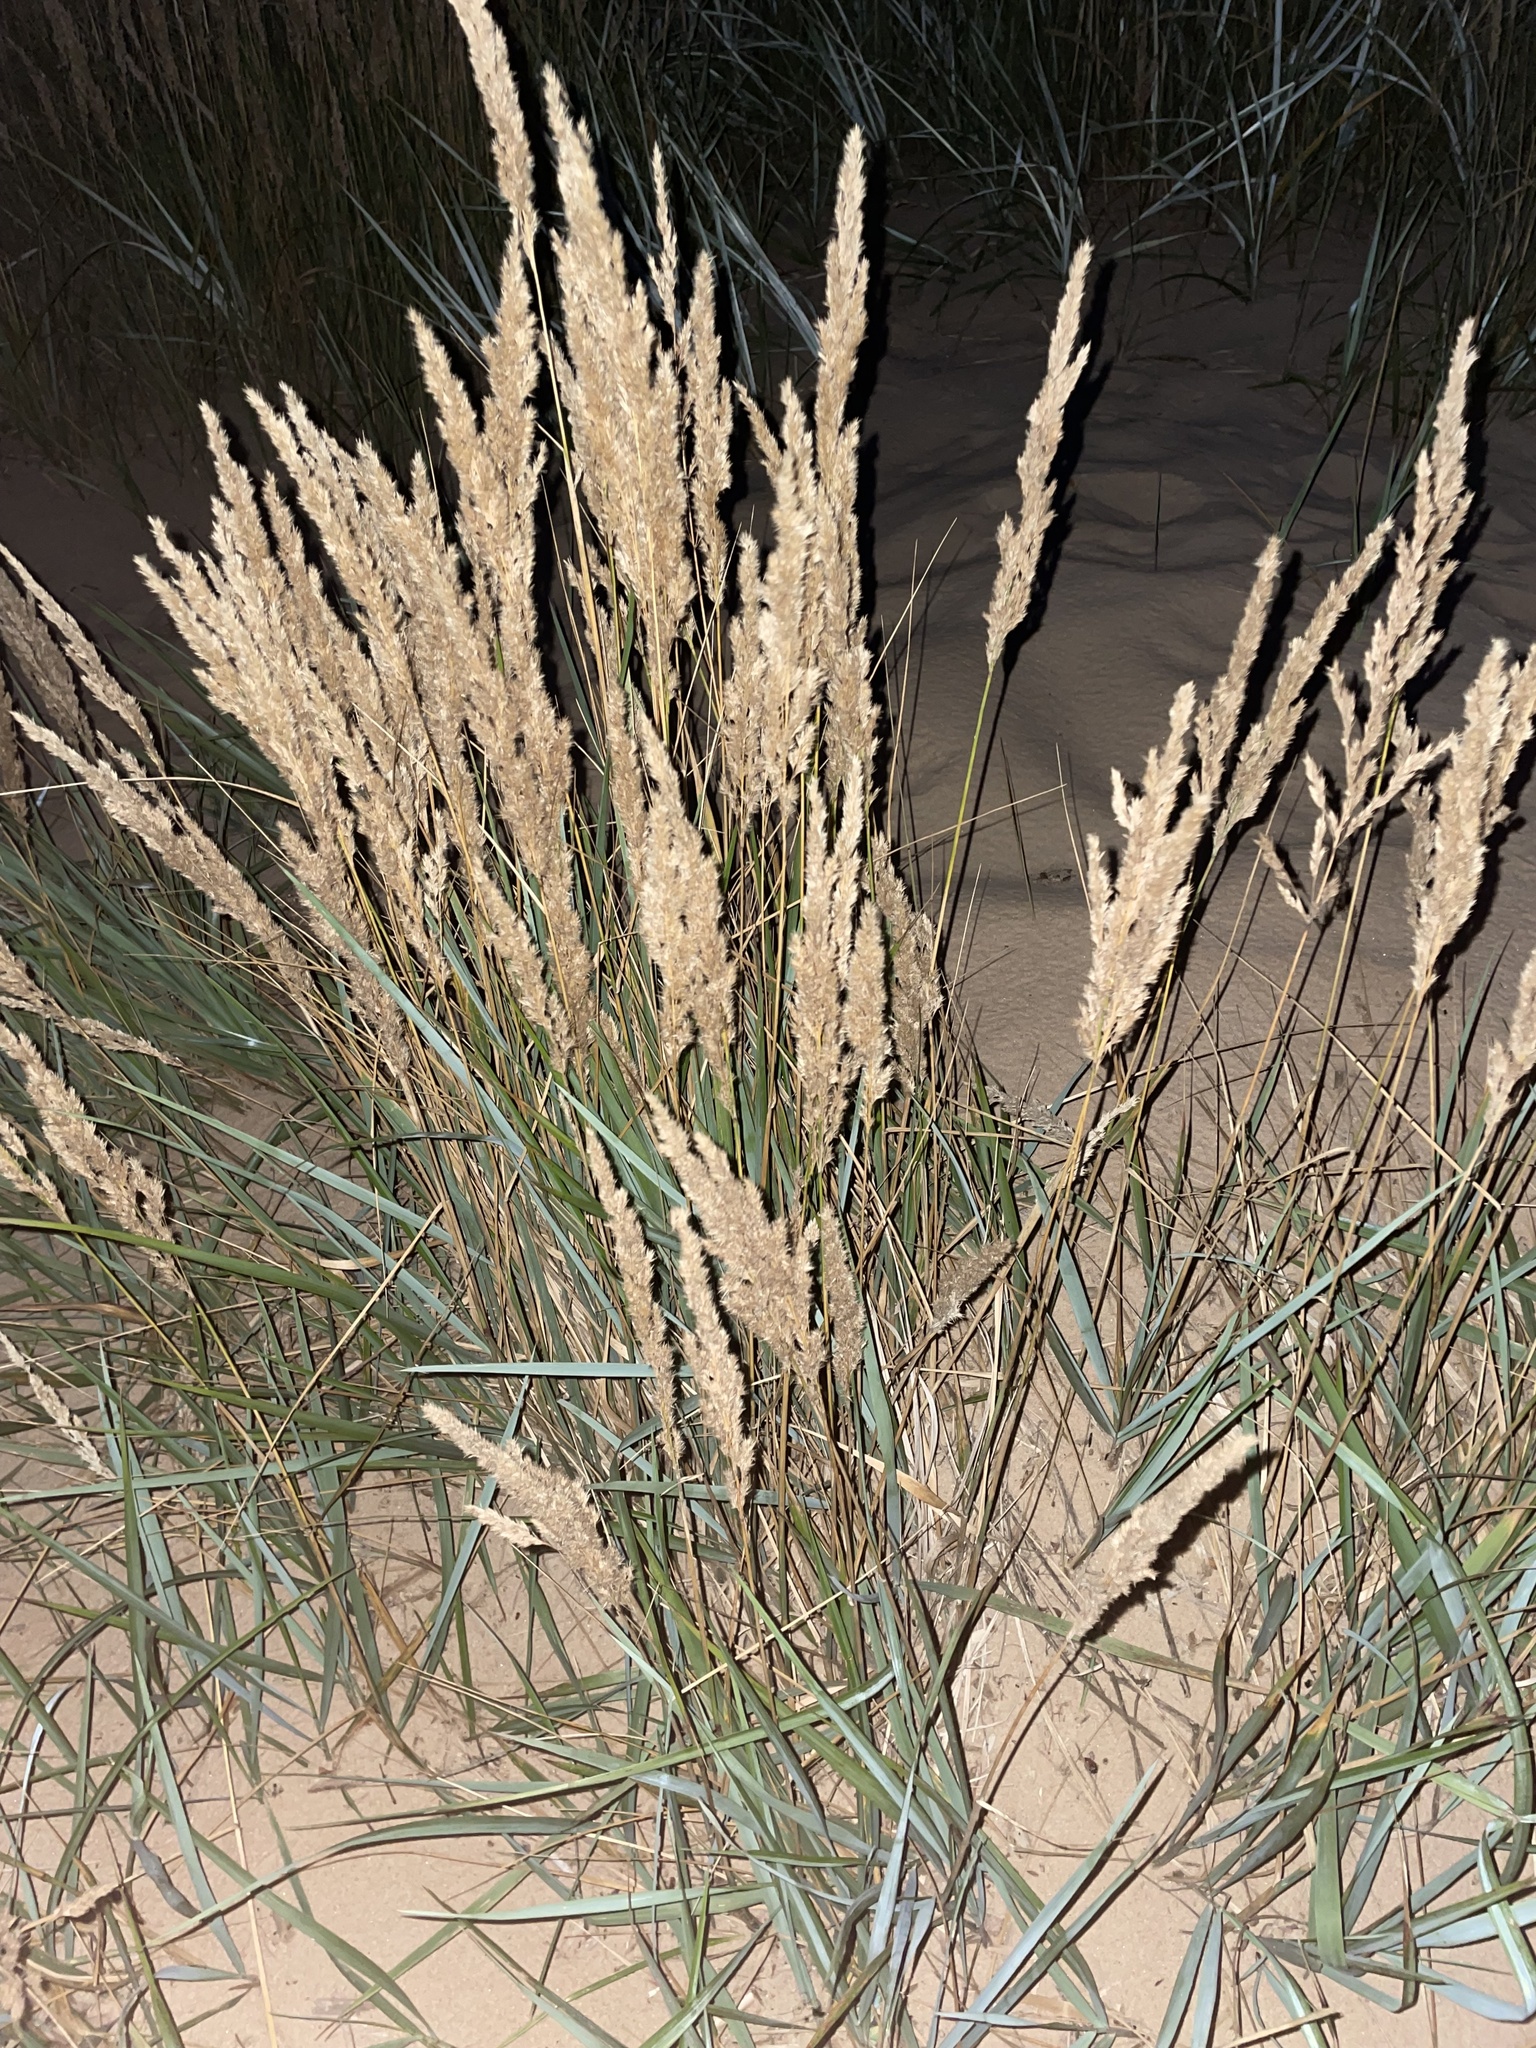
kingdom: Plantae
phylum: Tracheophyta
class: Liliopsida
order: Poales
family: Poaceae
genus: Calamagrostis
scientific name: Calamagrostis epigejos
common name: Wood small-reed
